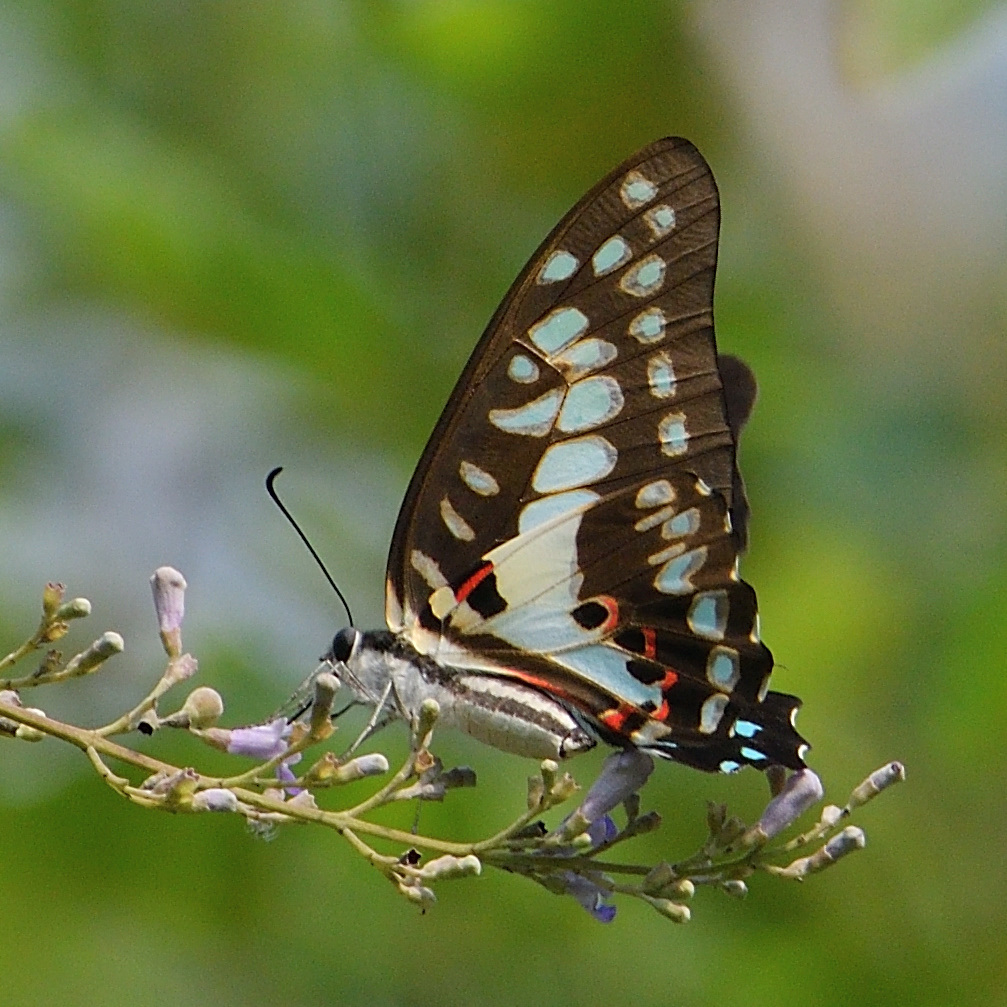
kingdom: Animalia
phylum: Arthropoda
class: Insecta
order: Lepidoptera
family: Papilionidae
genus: Graphium
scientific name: Graphium doson
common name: Common jay
